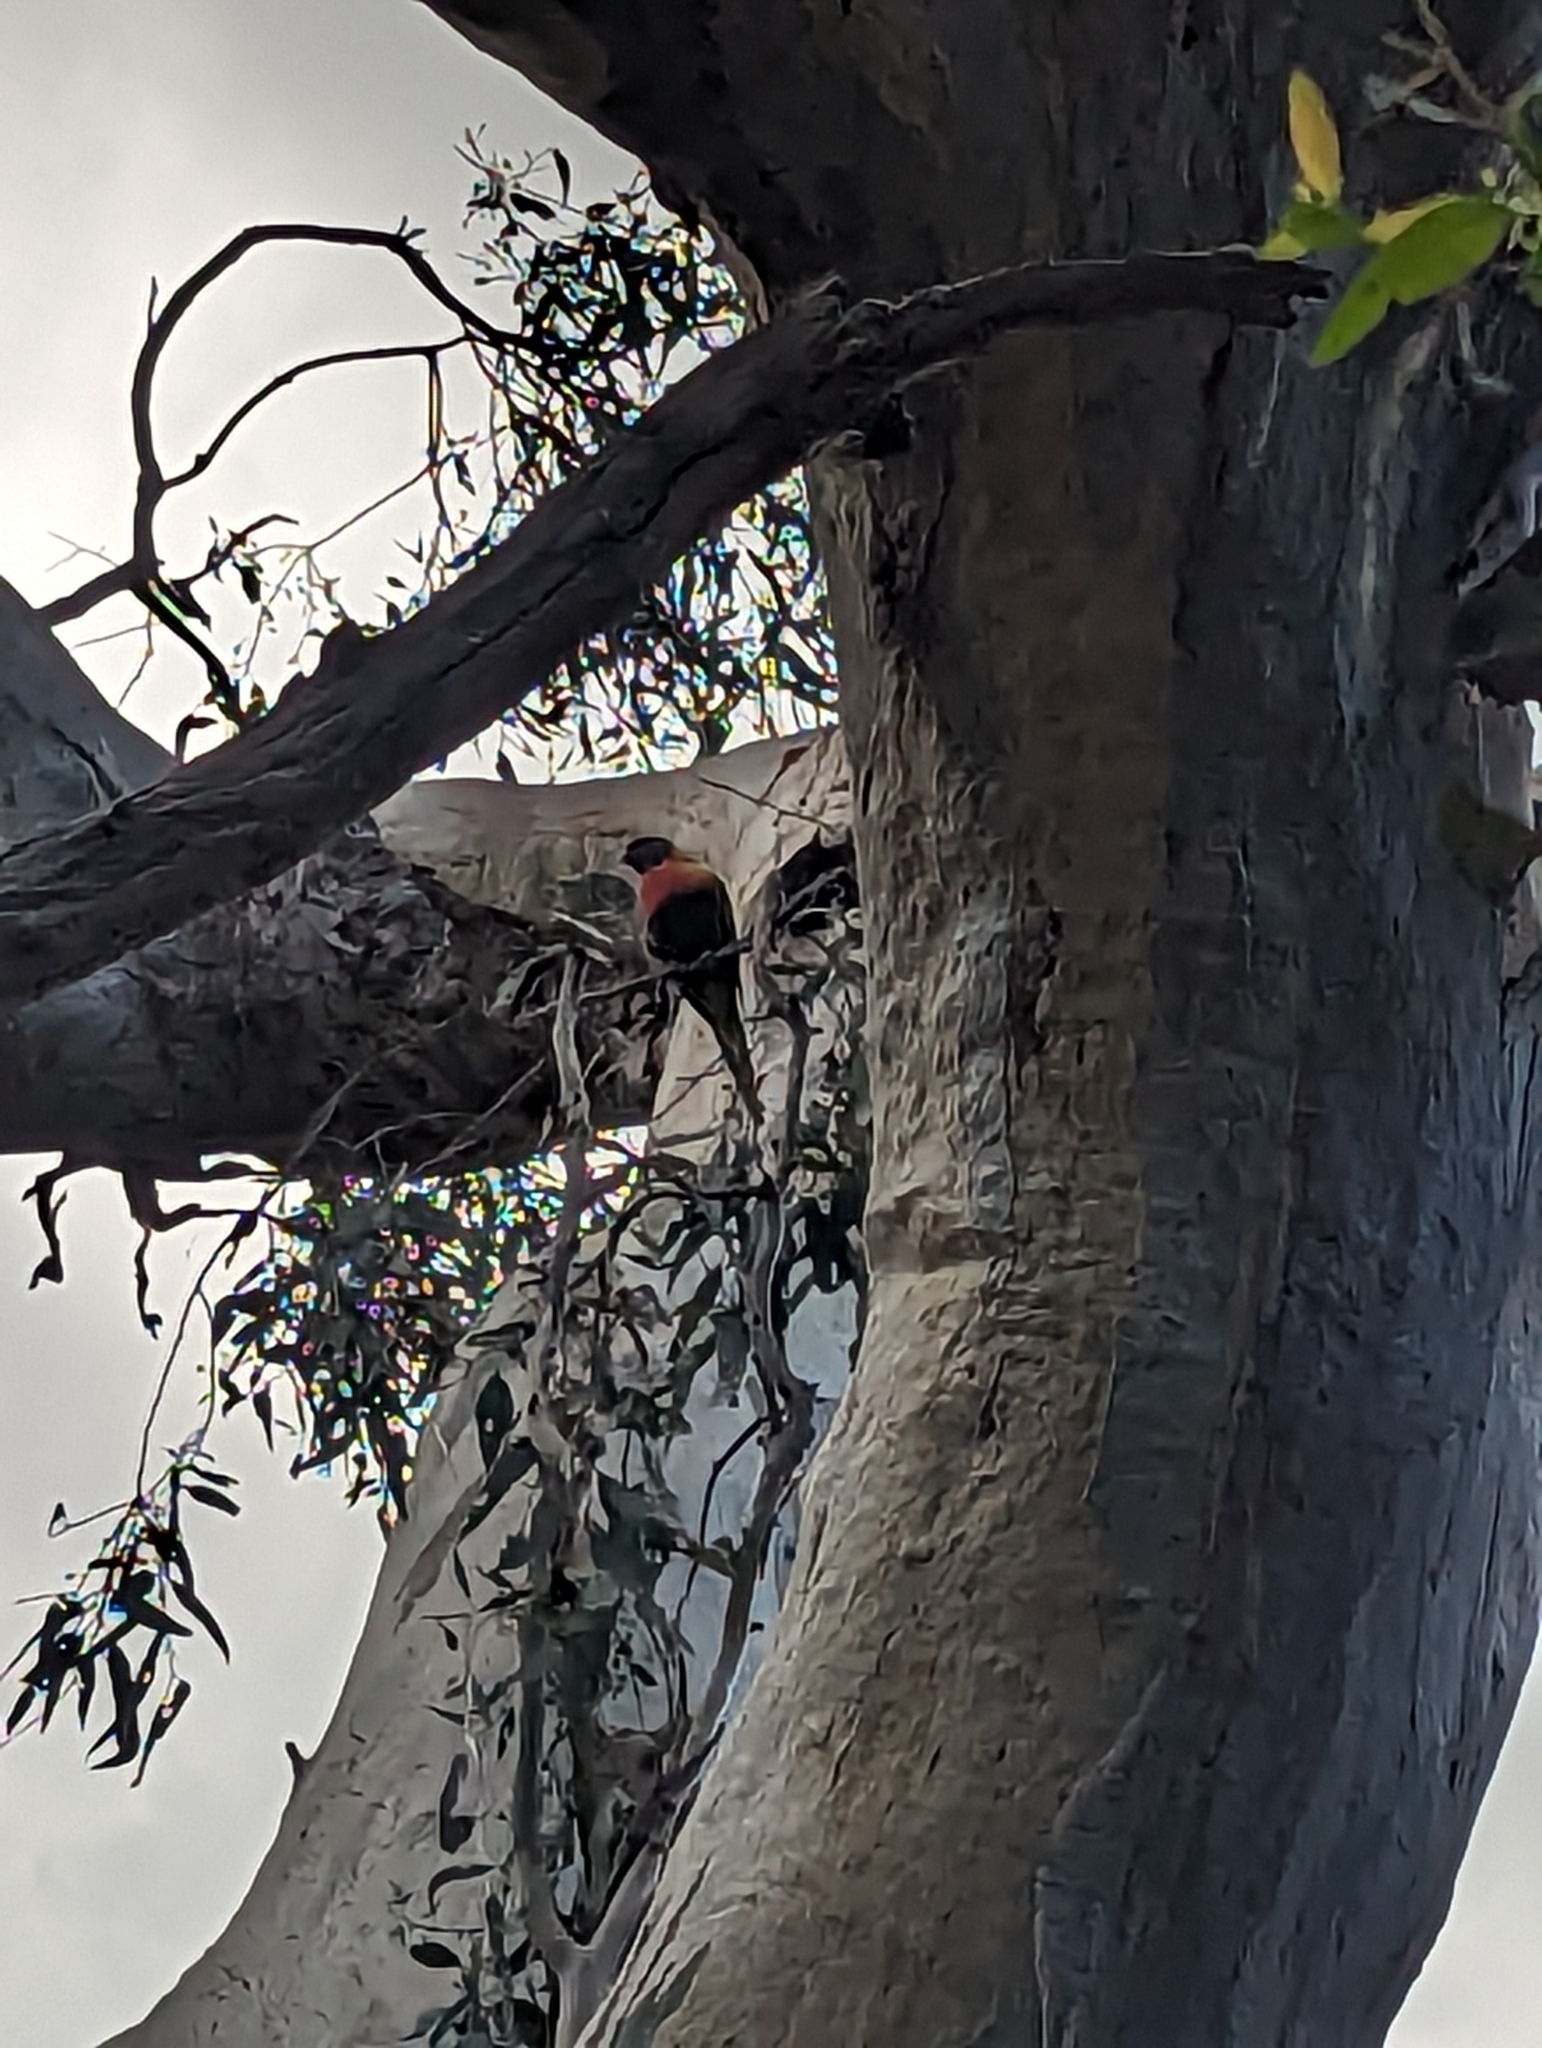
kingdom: Animalia
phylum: Chordata
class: Aves
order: Psittaciformes
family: Psittacidae
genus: Trichoglossus
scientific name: Trichoglossus haematodus
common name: Coconut lorikeet
